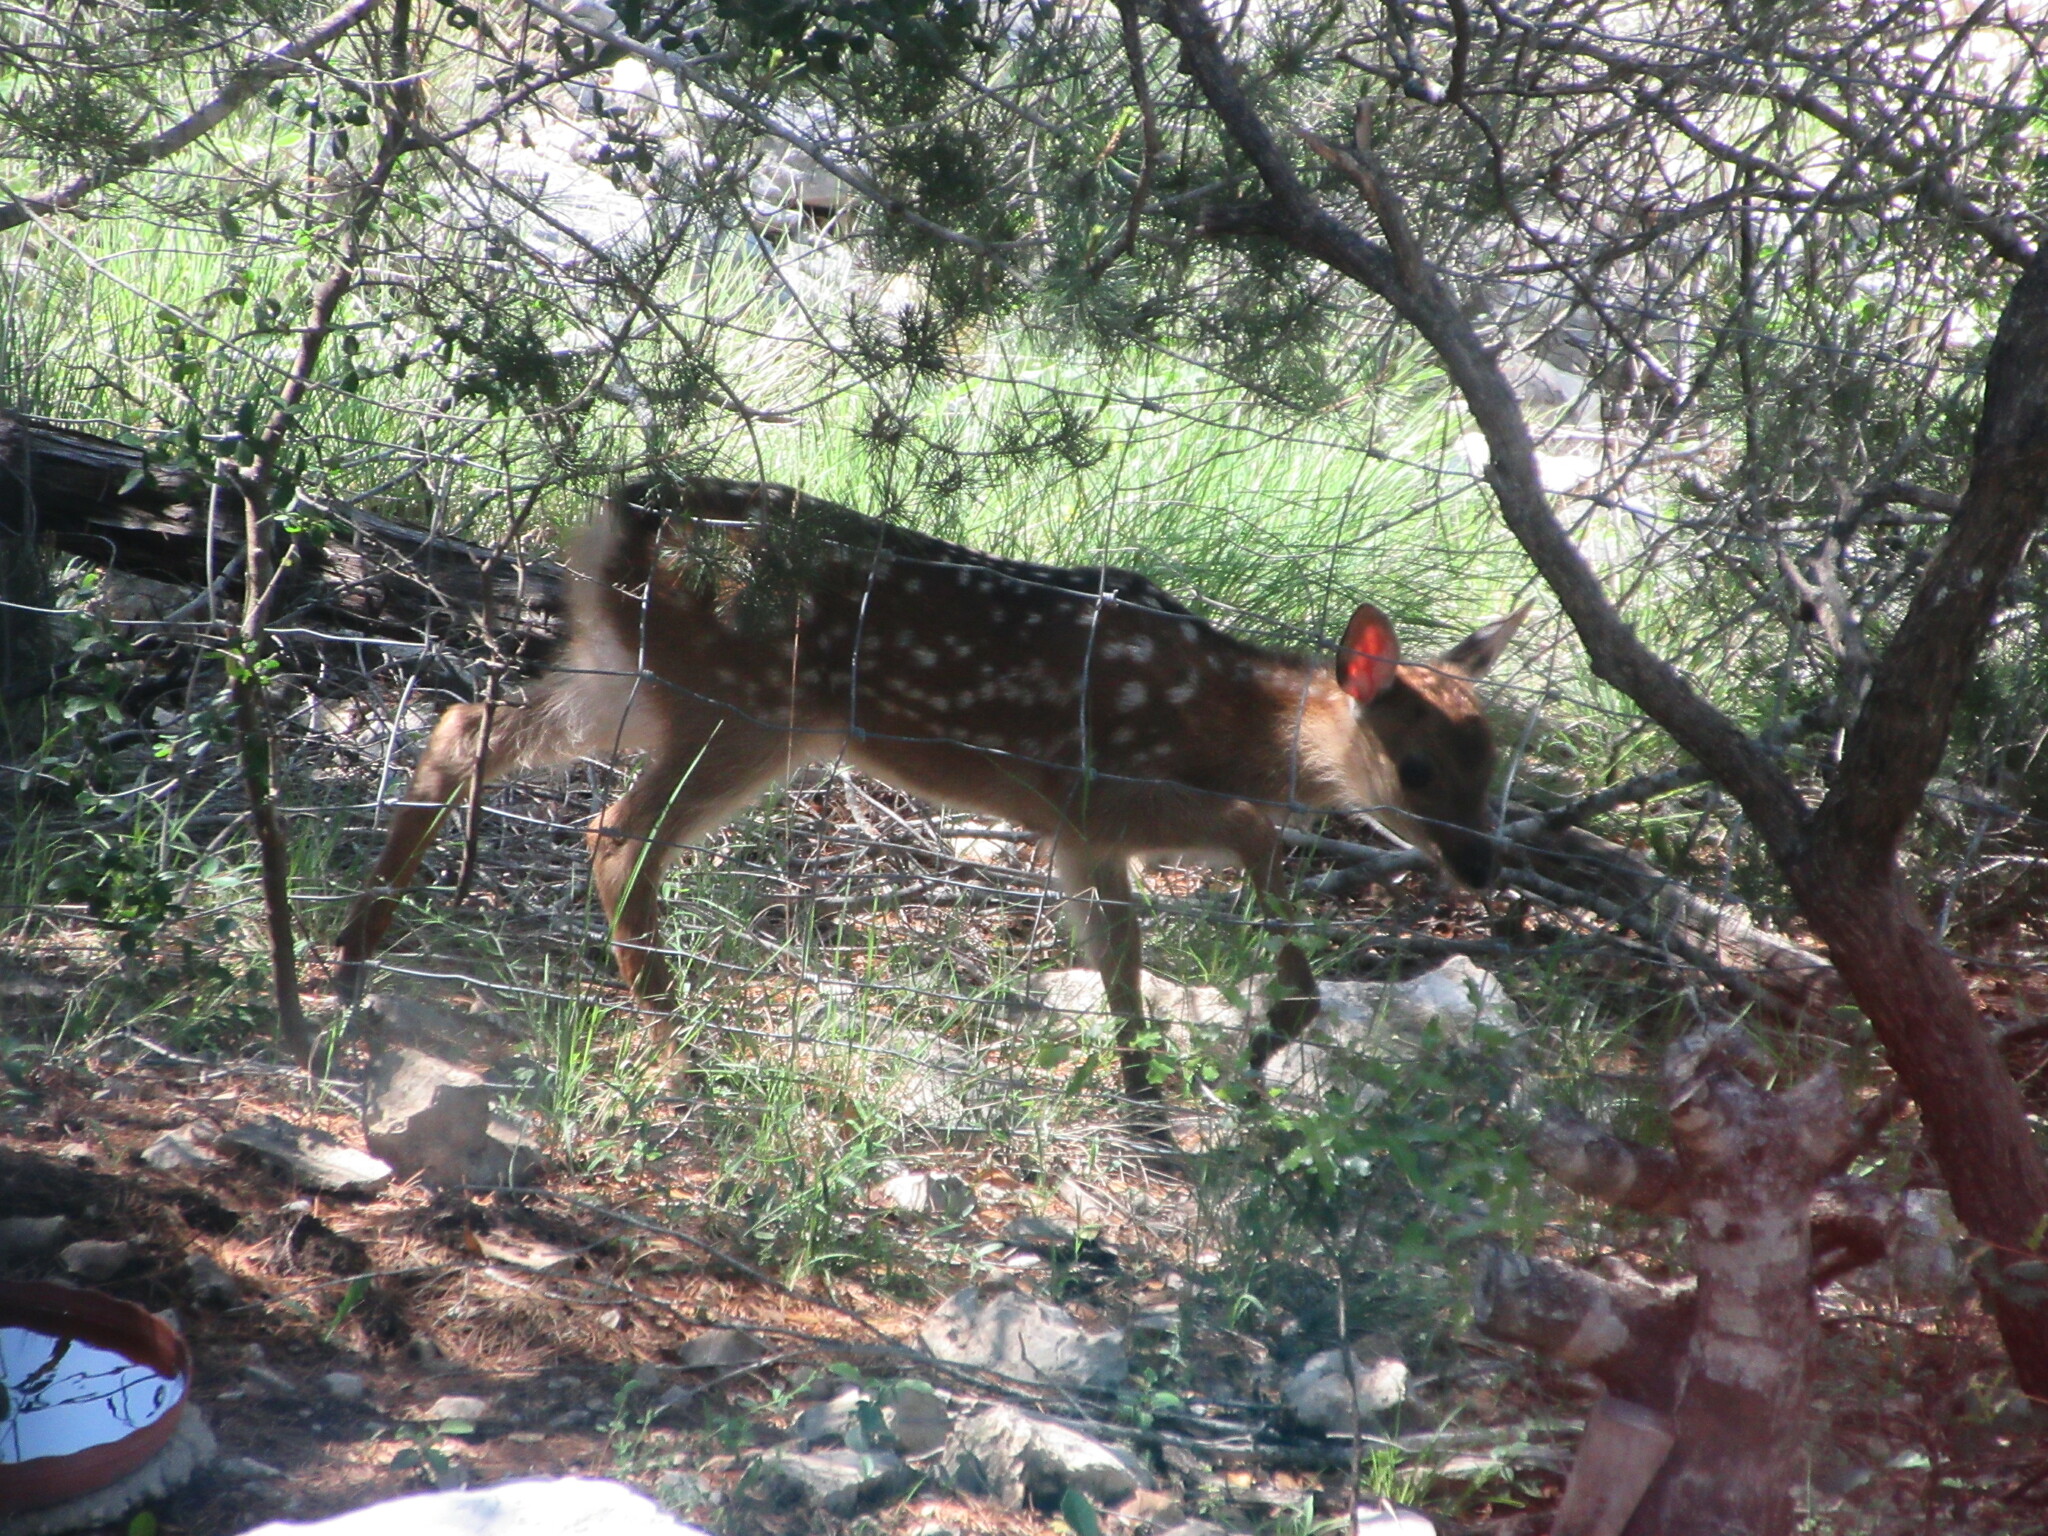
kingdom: Animalia
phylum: Chordata
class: Mammalia
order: Artiodactyla
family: Cervidae
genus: Cervus
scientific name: Cervus nippon
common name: Sika deer
